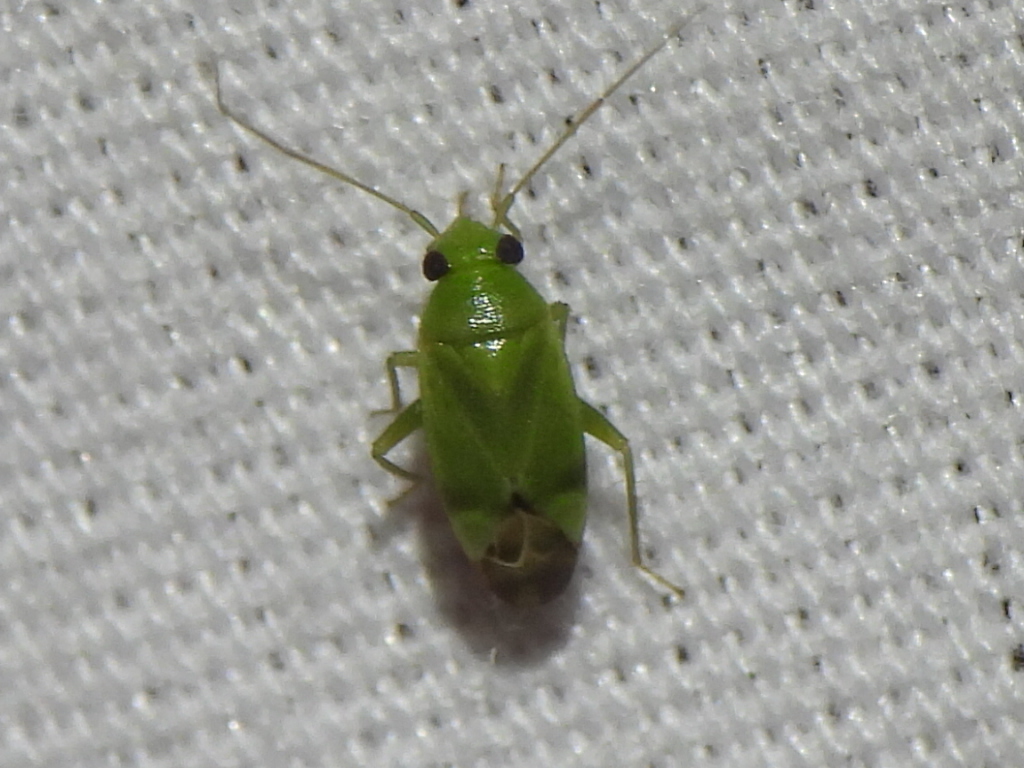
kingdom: Animalia
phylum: Arthropoda
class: Insecta
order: Hemiptera
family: Miridae
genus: Dichrooscytus
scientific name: Dichrooscytus
